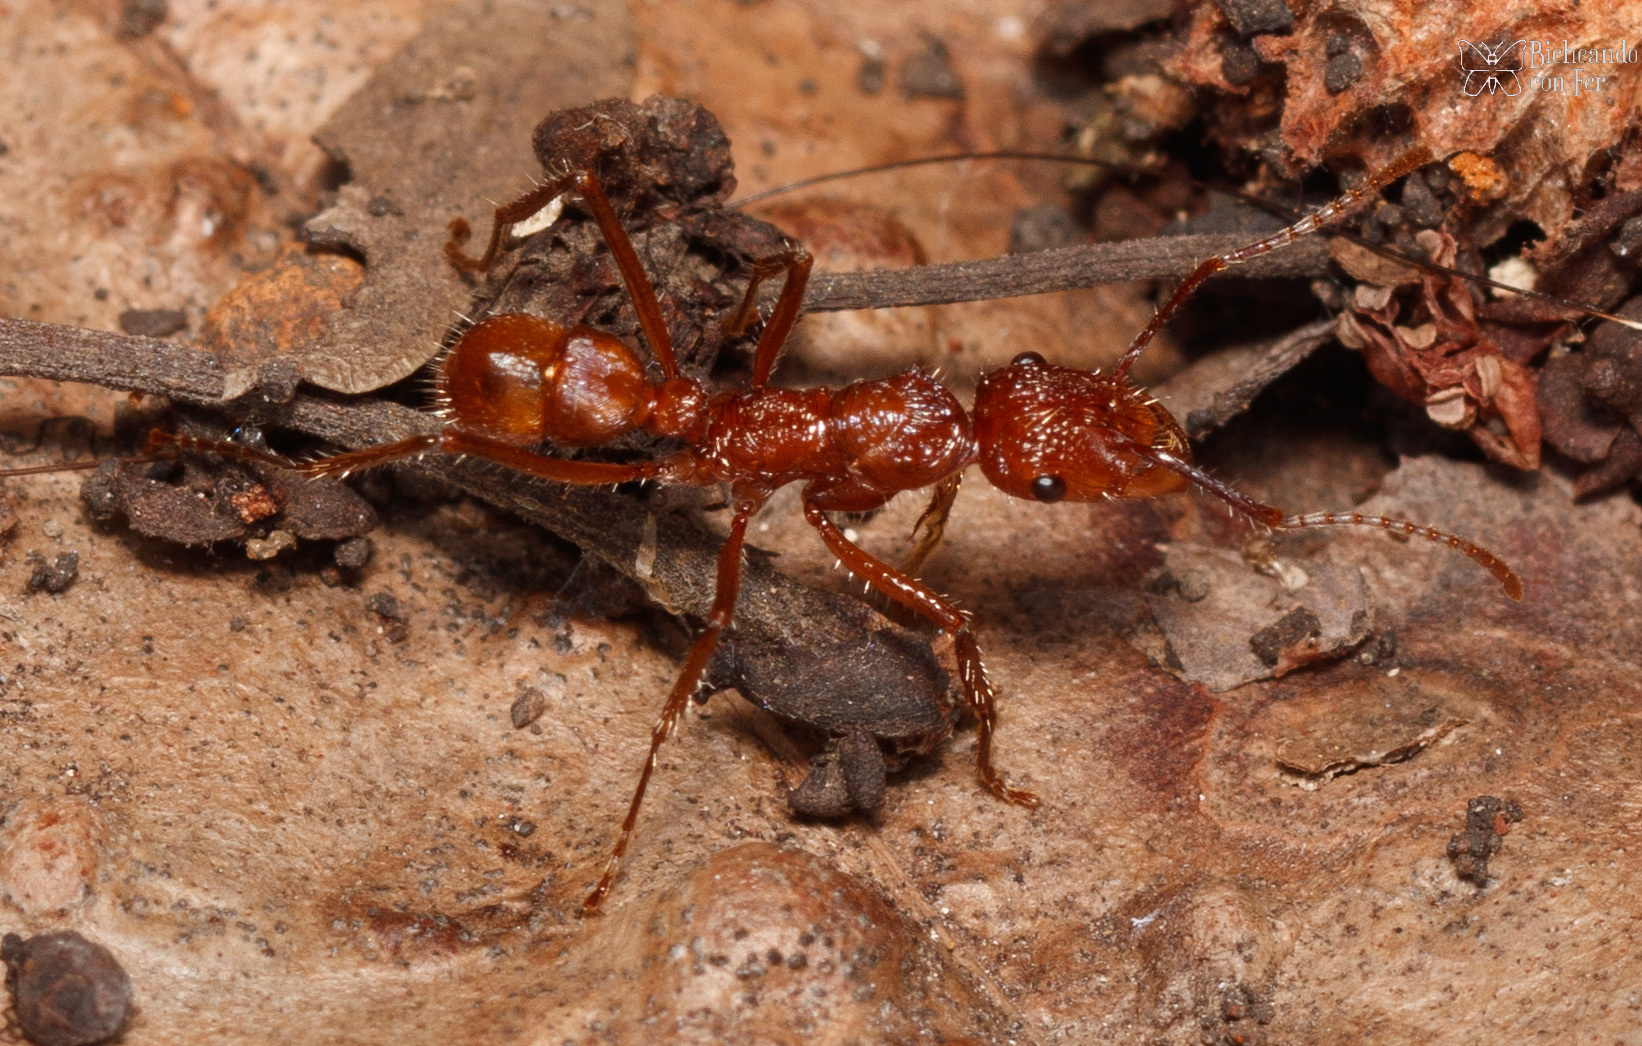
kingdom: Animalia
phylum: Arthropoda
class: Insecta
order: Hymenoptera
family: Formicidae
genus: Ectatomma
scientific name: Ectatomma tuberculatum
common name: Ant
